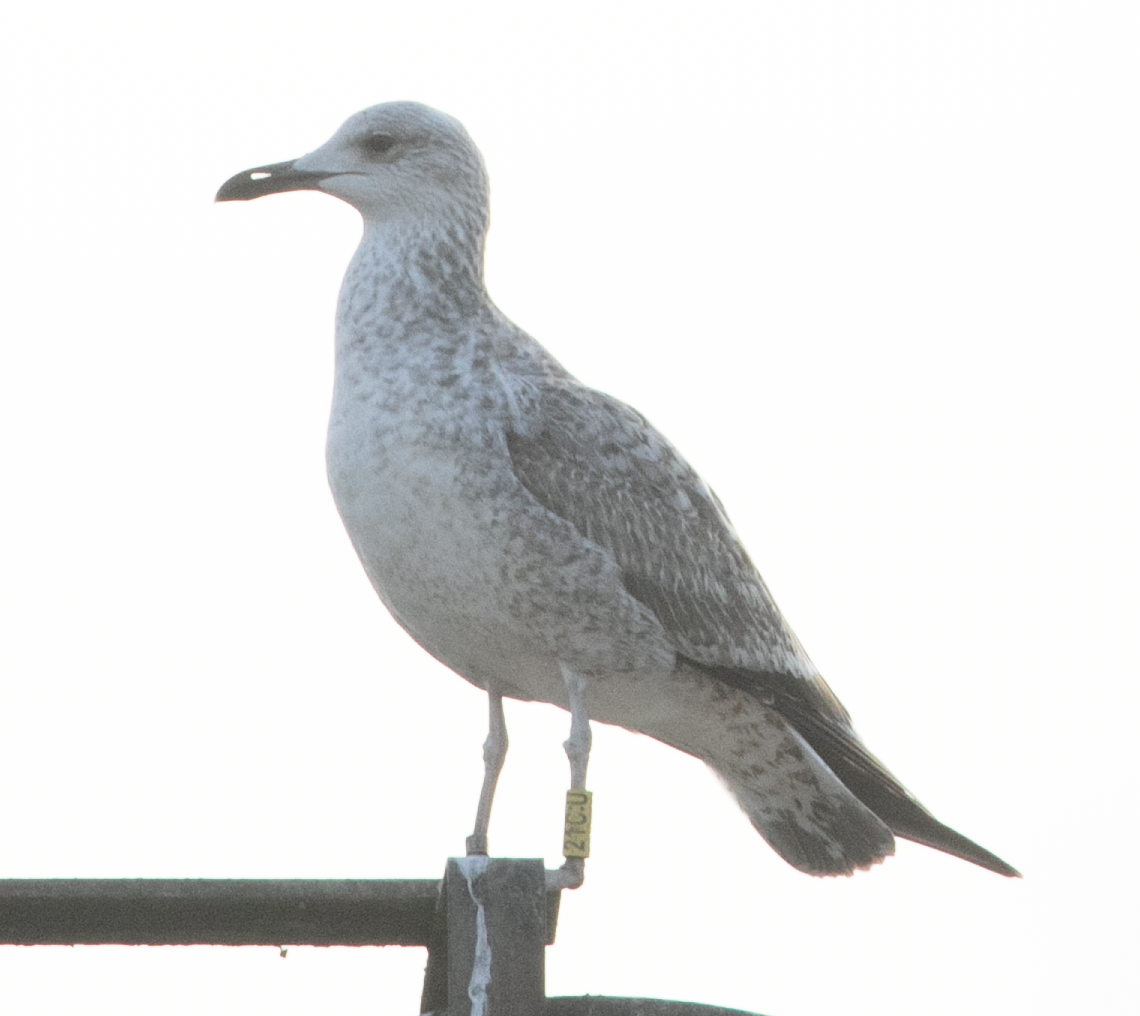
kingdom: Animalia
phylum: Chordata
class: Aves
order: Charadriiformes
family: Laridae
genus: Larus
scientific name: Larus cachinnans
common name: Caspian gull
